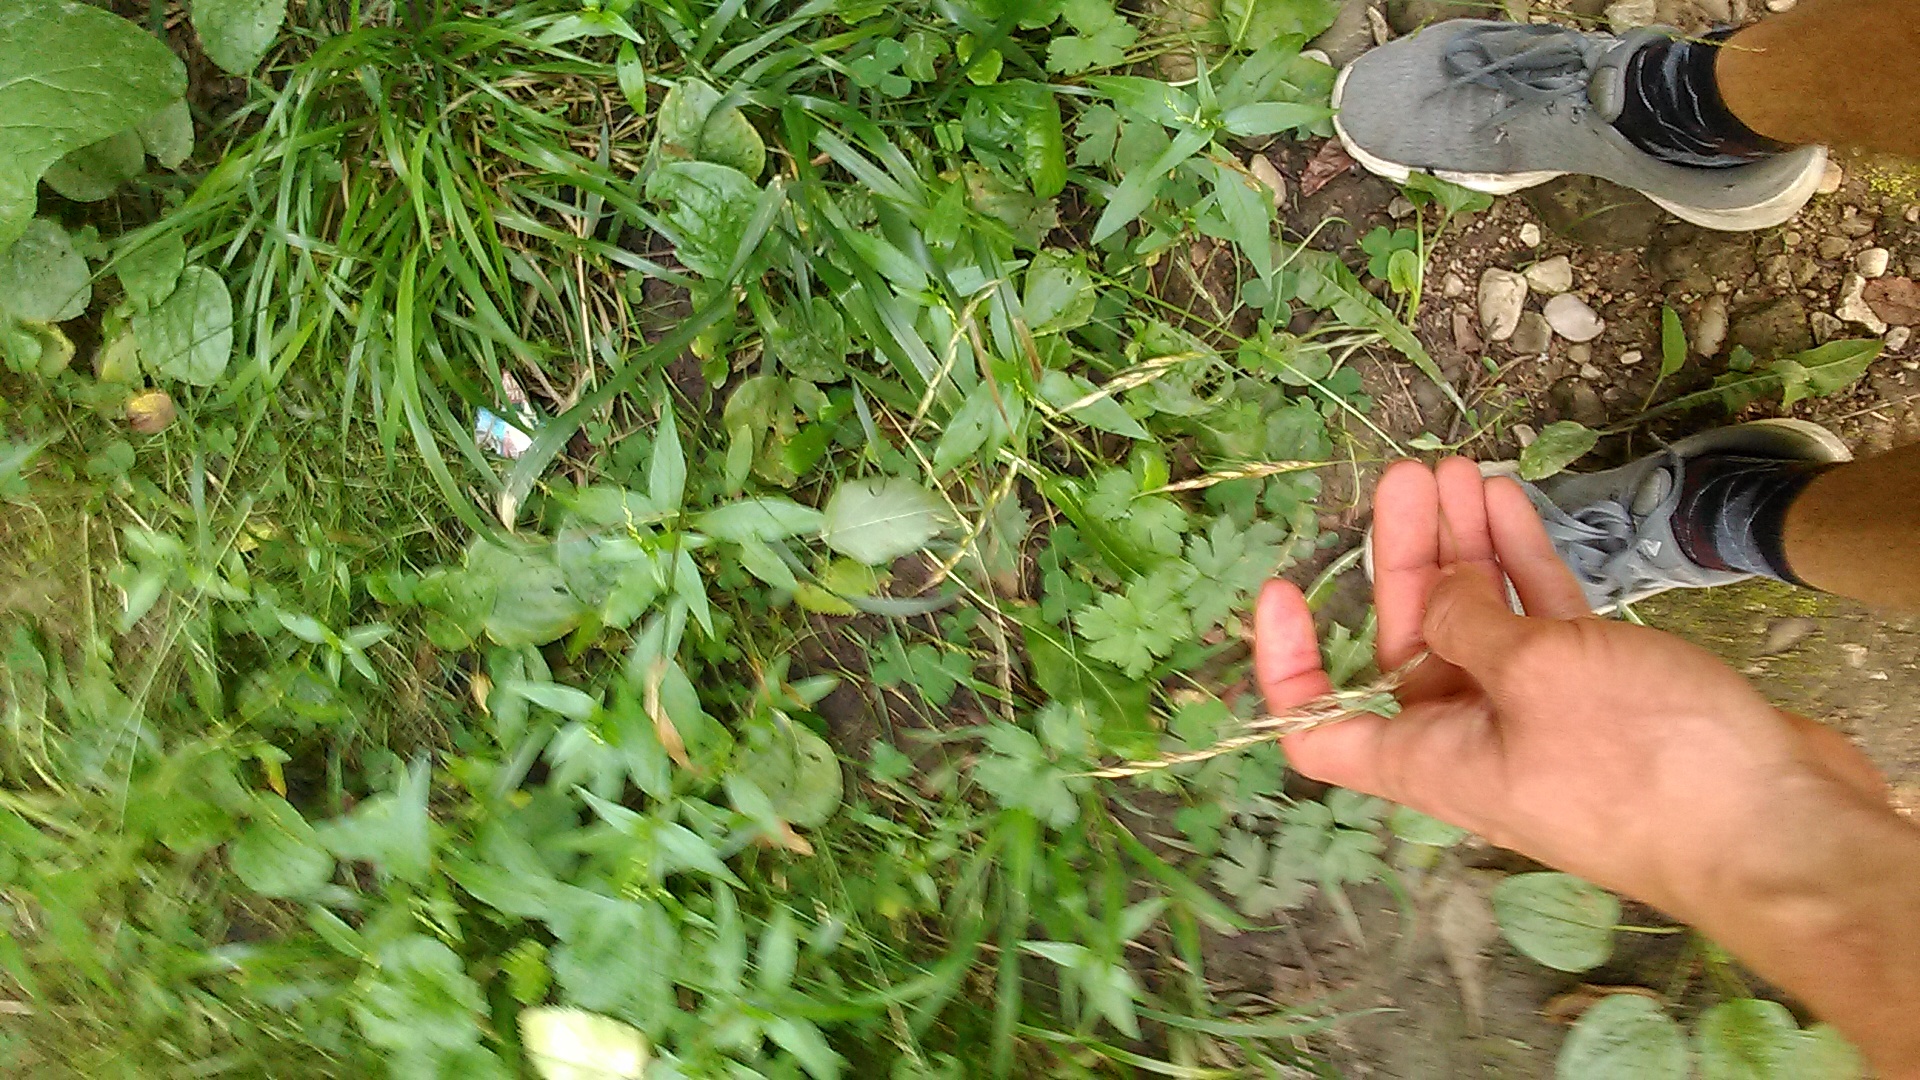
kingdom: Plantae
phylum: Tracheophyta
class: Liliopsida
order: Poales
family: Poaceae
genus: Lolium
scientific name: Lolium giganteum
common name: Giant fescue
